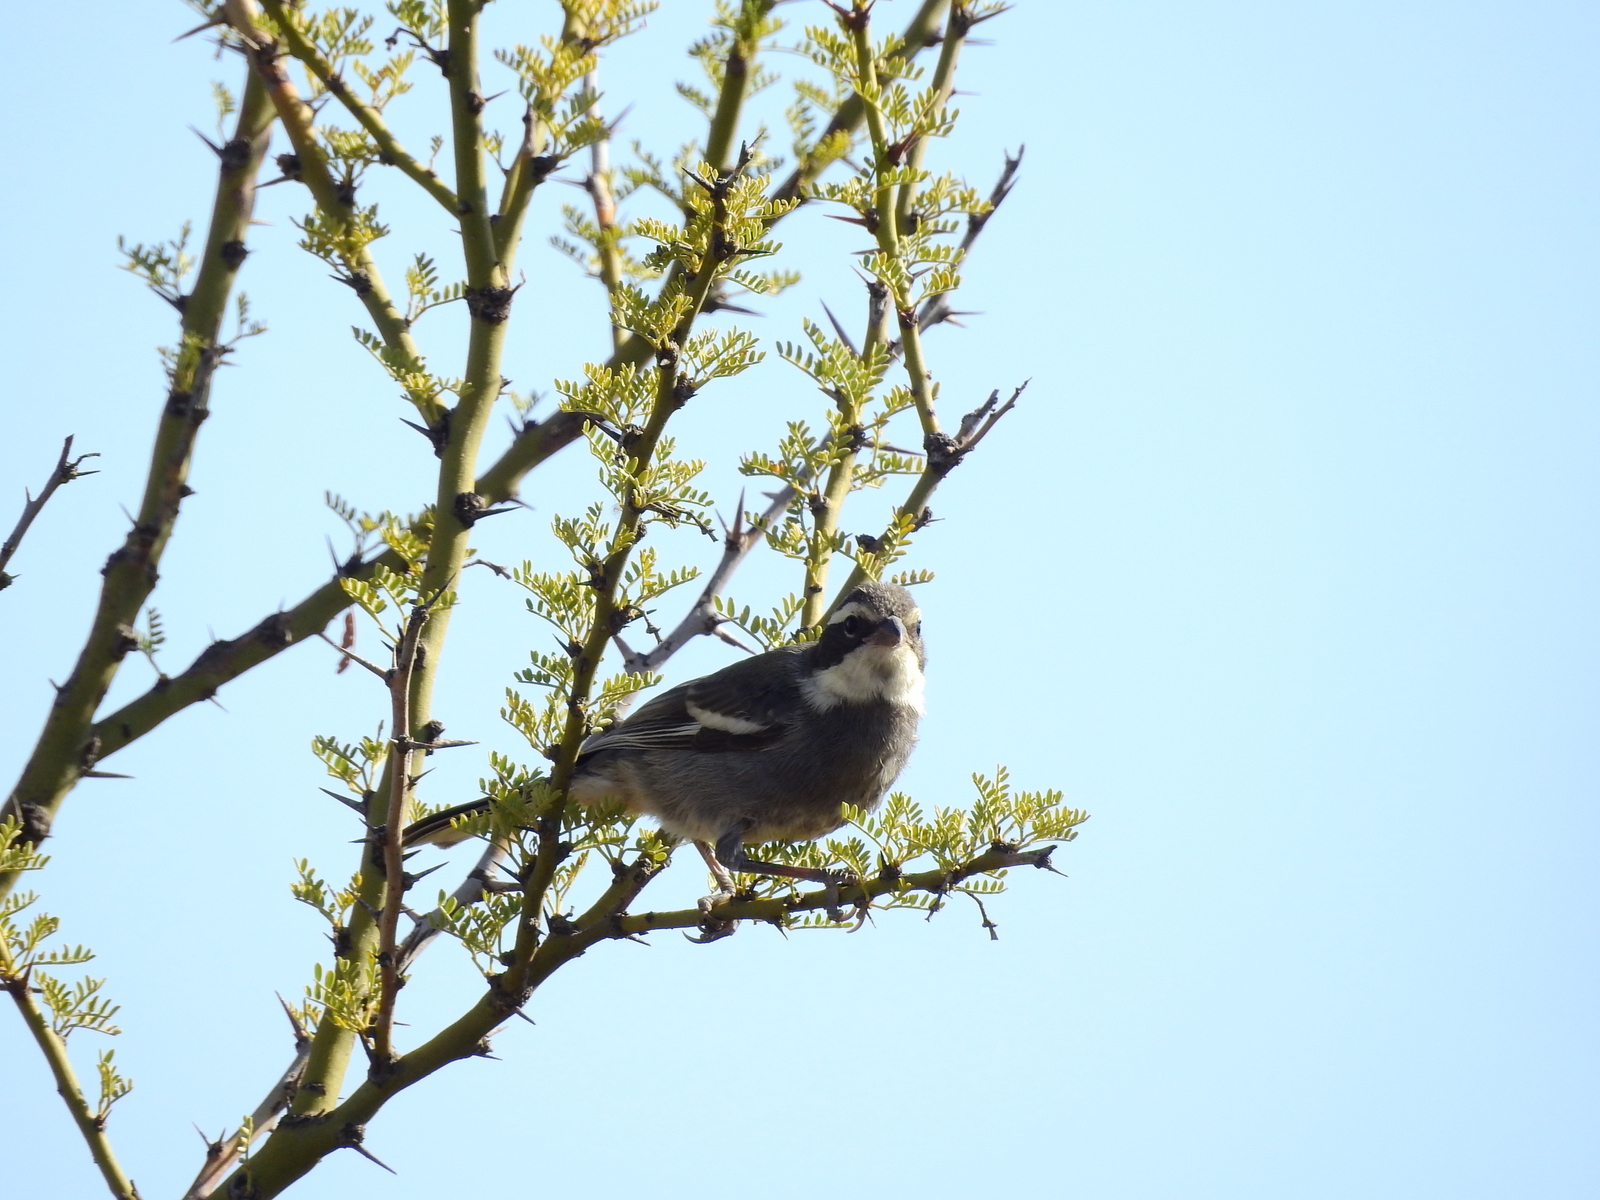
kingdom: Animalia
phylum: Chordata
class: Aves
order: Passeriformes
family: Thraupidae
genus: Microspingus
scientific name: Microspingus torquatus
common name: Ringed warbling-finch
